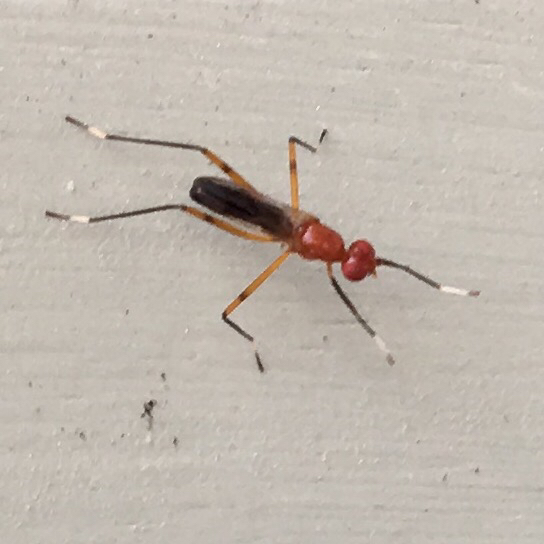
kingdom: Animalia
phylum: Arthropoda
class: Insecta
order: Diptera
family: Micropezidae
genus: Grallipeza
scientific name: Grallipeza nebulosa
